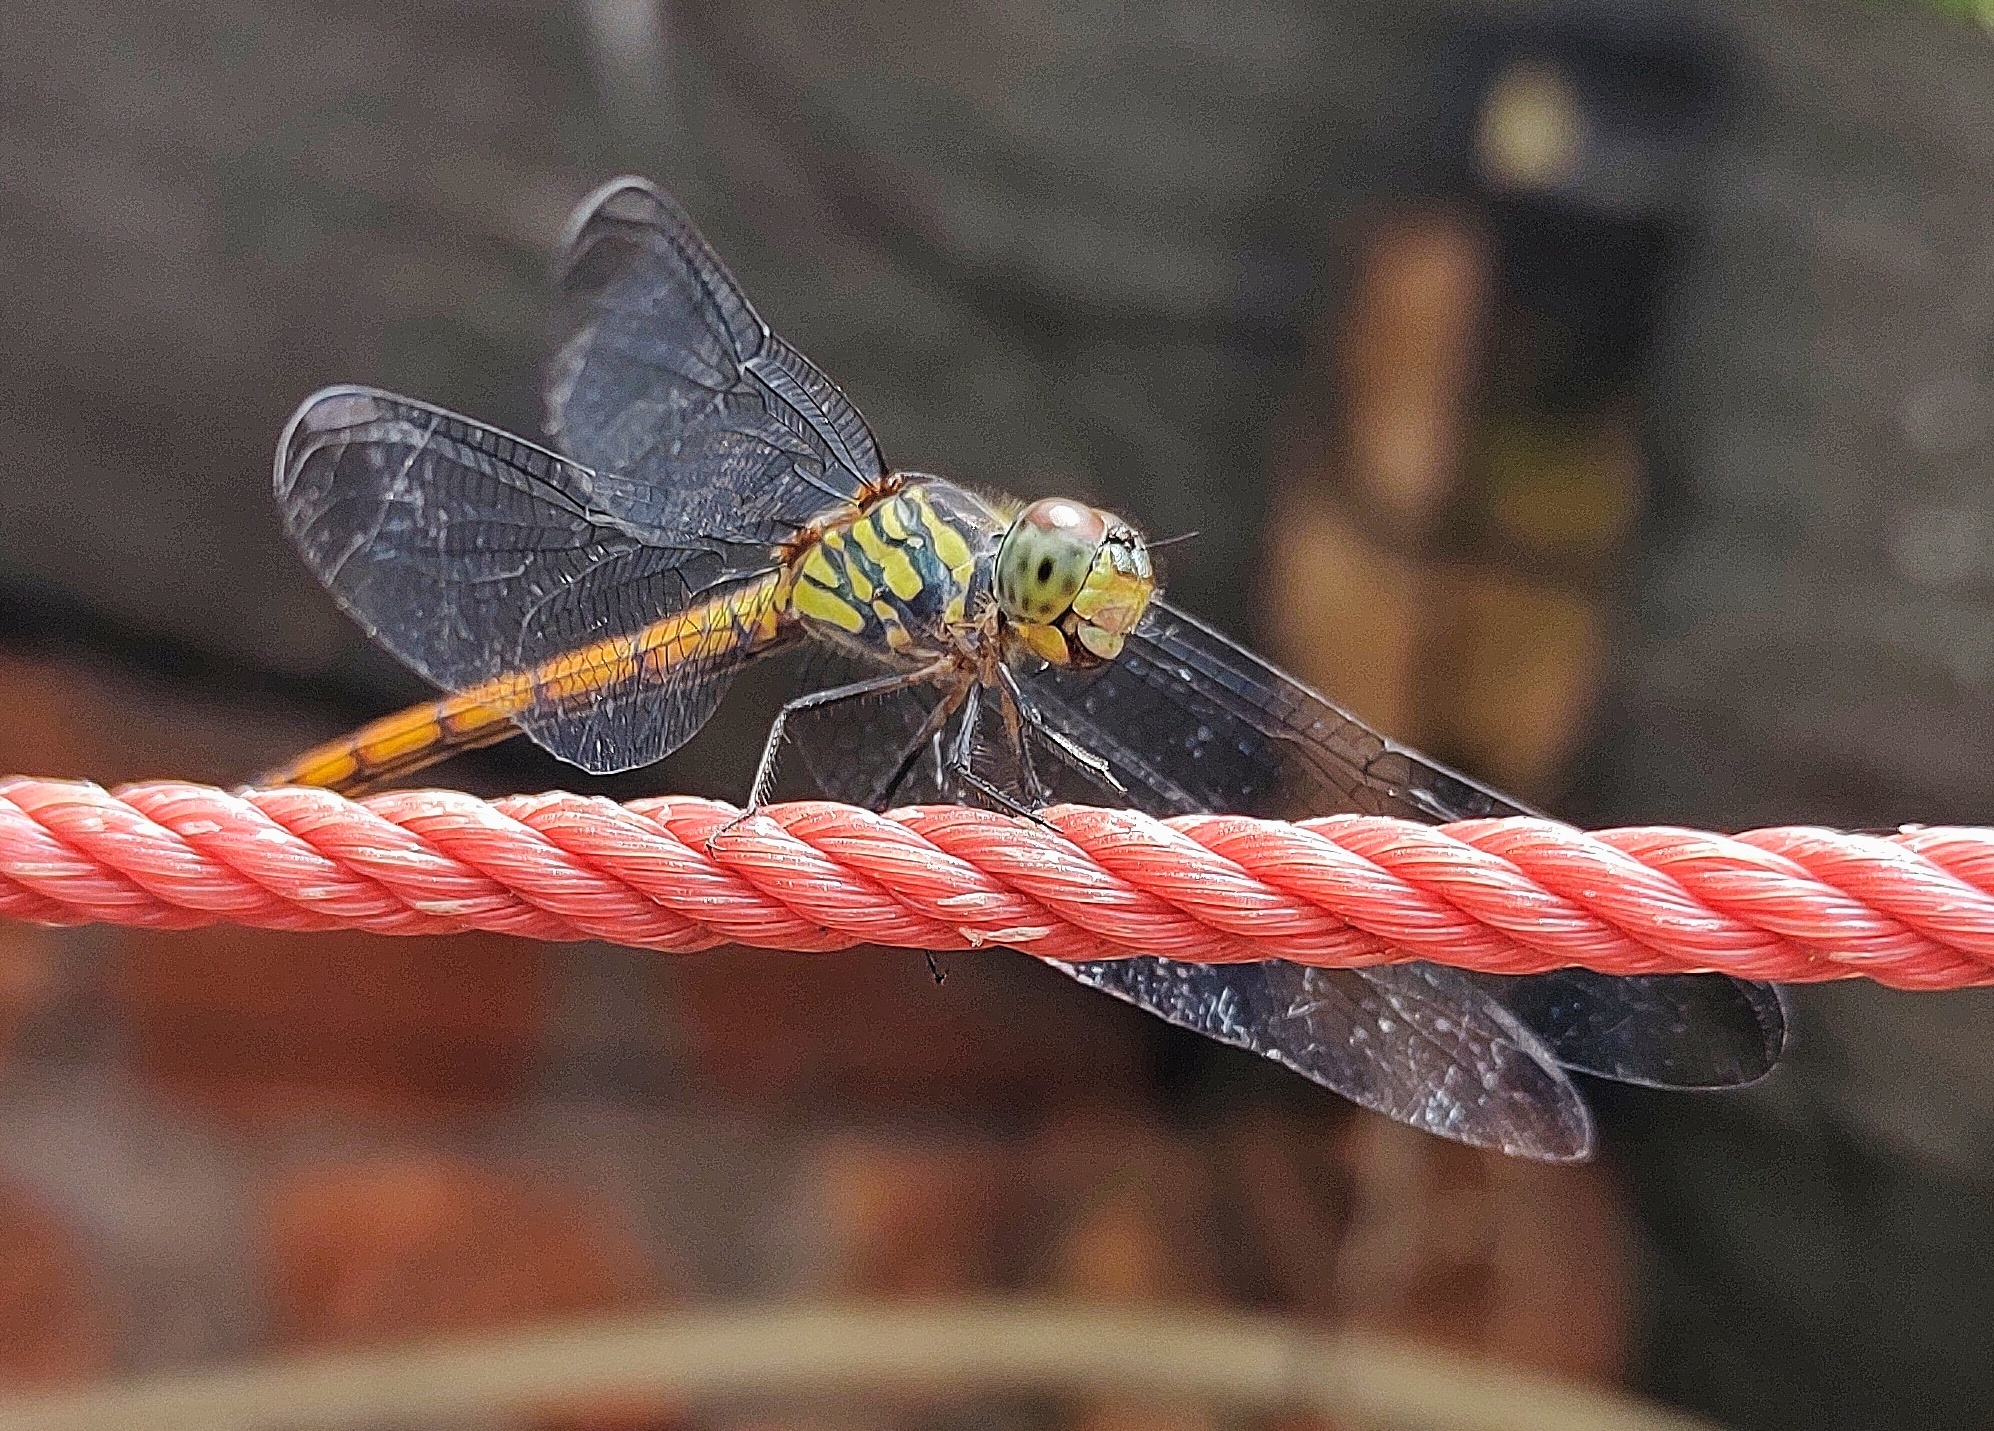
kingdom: Animalia
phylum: Arthropoda
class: Insecta
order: Odonata
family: Libellulidae
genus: Lathrecista
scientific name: Lathrecista asiatica
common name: Scarlet grenadier
